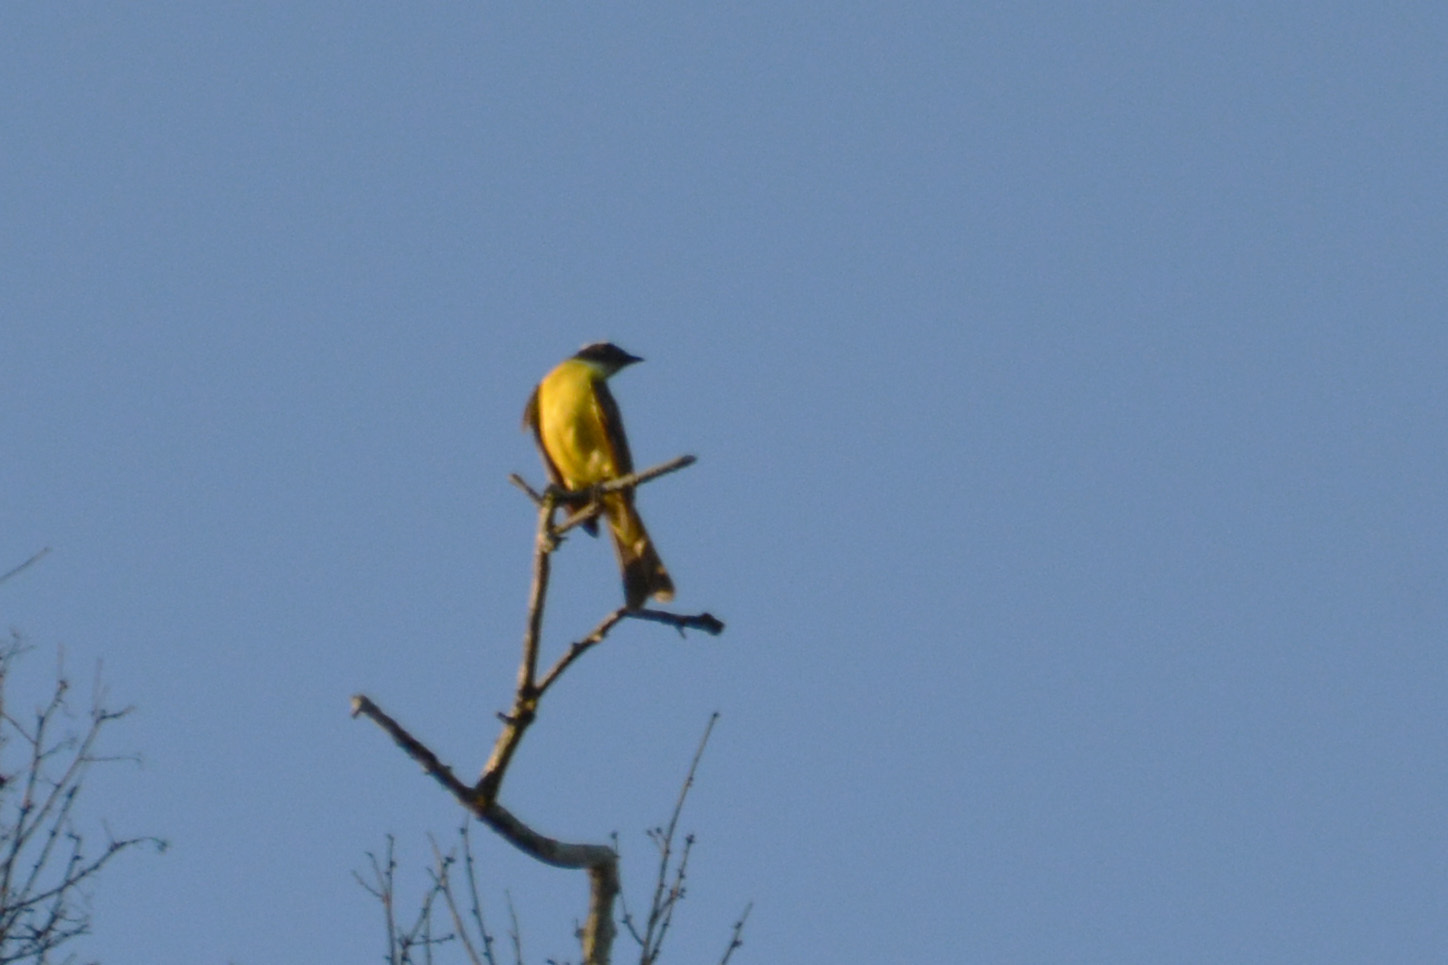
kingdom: Animalia
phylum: Chordata
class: Aves
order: Passeriformes
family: Tyrannidae
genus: Myiozetetes
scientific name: Myiozetetes similis
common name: Social flycatcher
